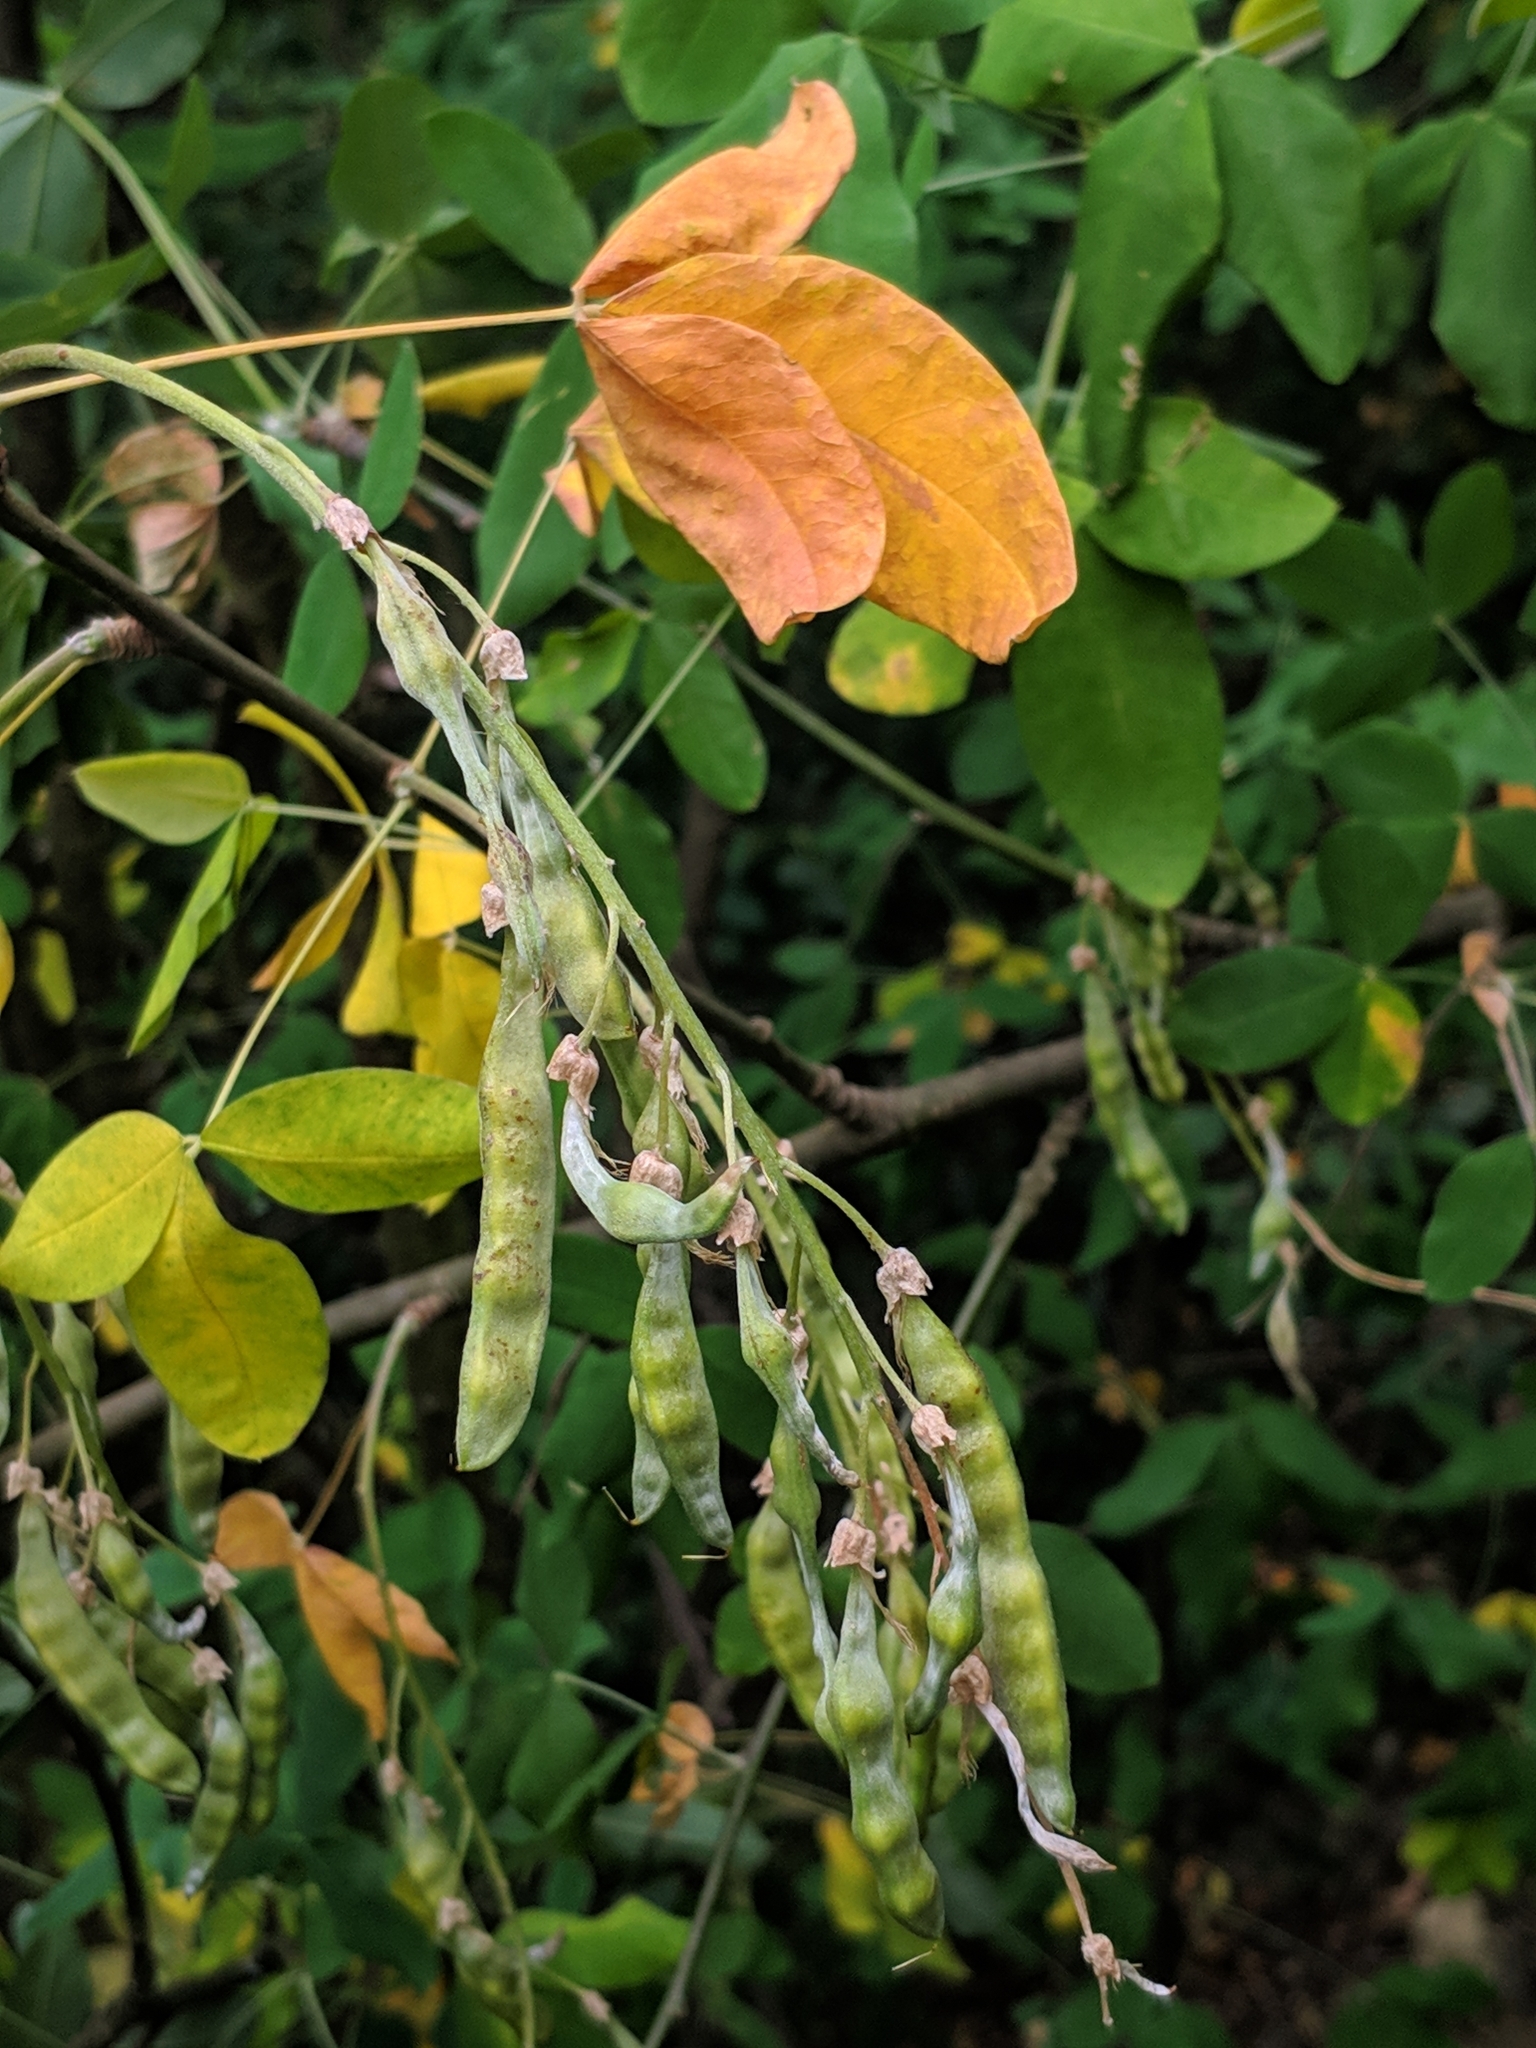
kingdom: Plantae
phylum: Tracheophyta
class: Magnoliopsida
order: Fabales
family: Fabaceae
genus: Laburnum
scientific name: Laburnum anagyroides
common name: Laburnum
